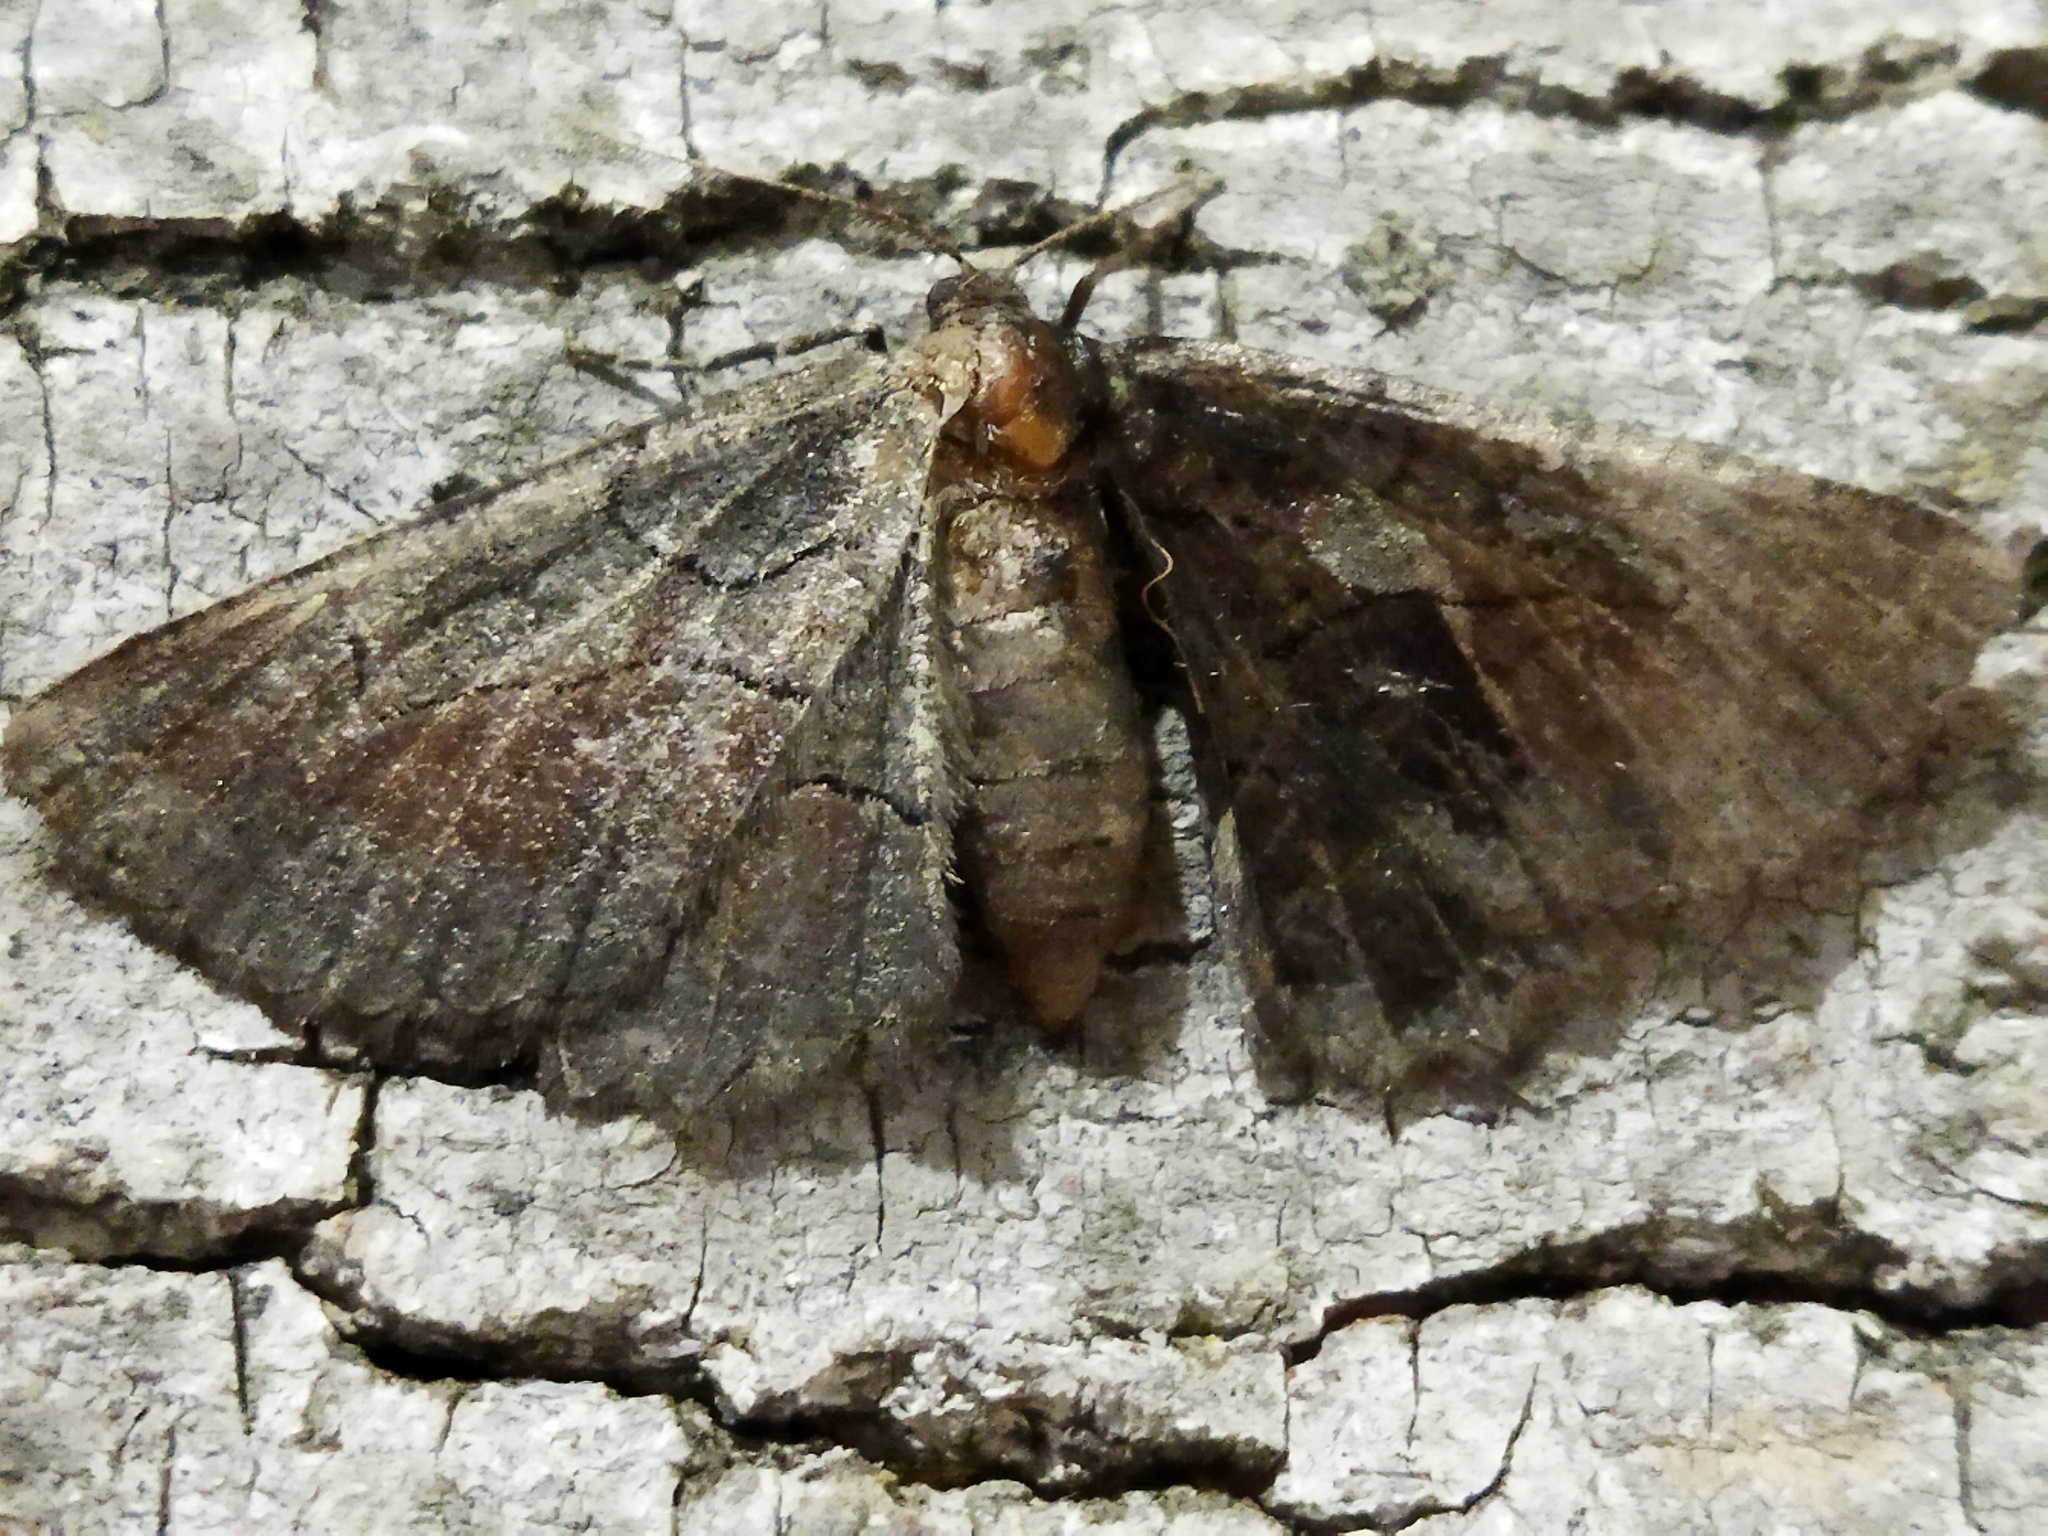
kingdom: Animalia
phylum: Arthropoda
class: Insecta
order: Lepidoptera
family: Geometridae
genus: Nychiodes
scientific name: Nychiodes waltheri
